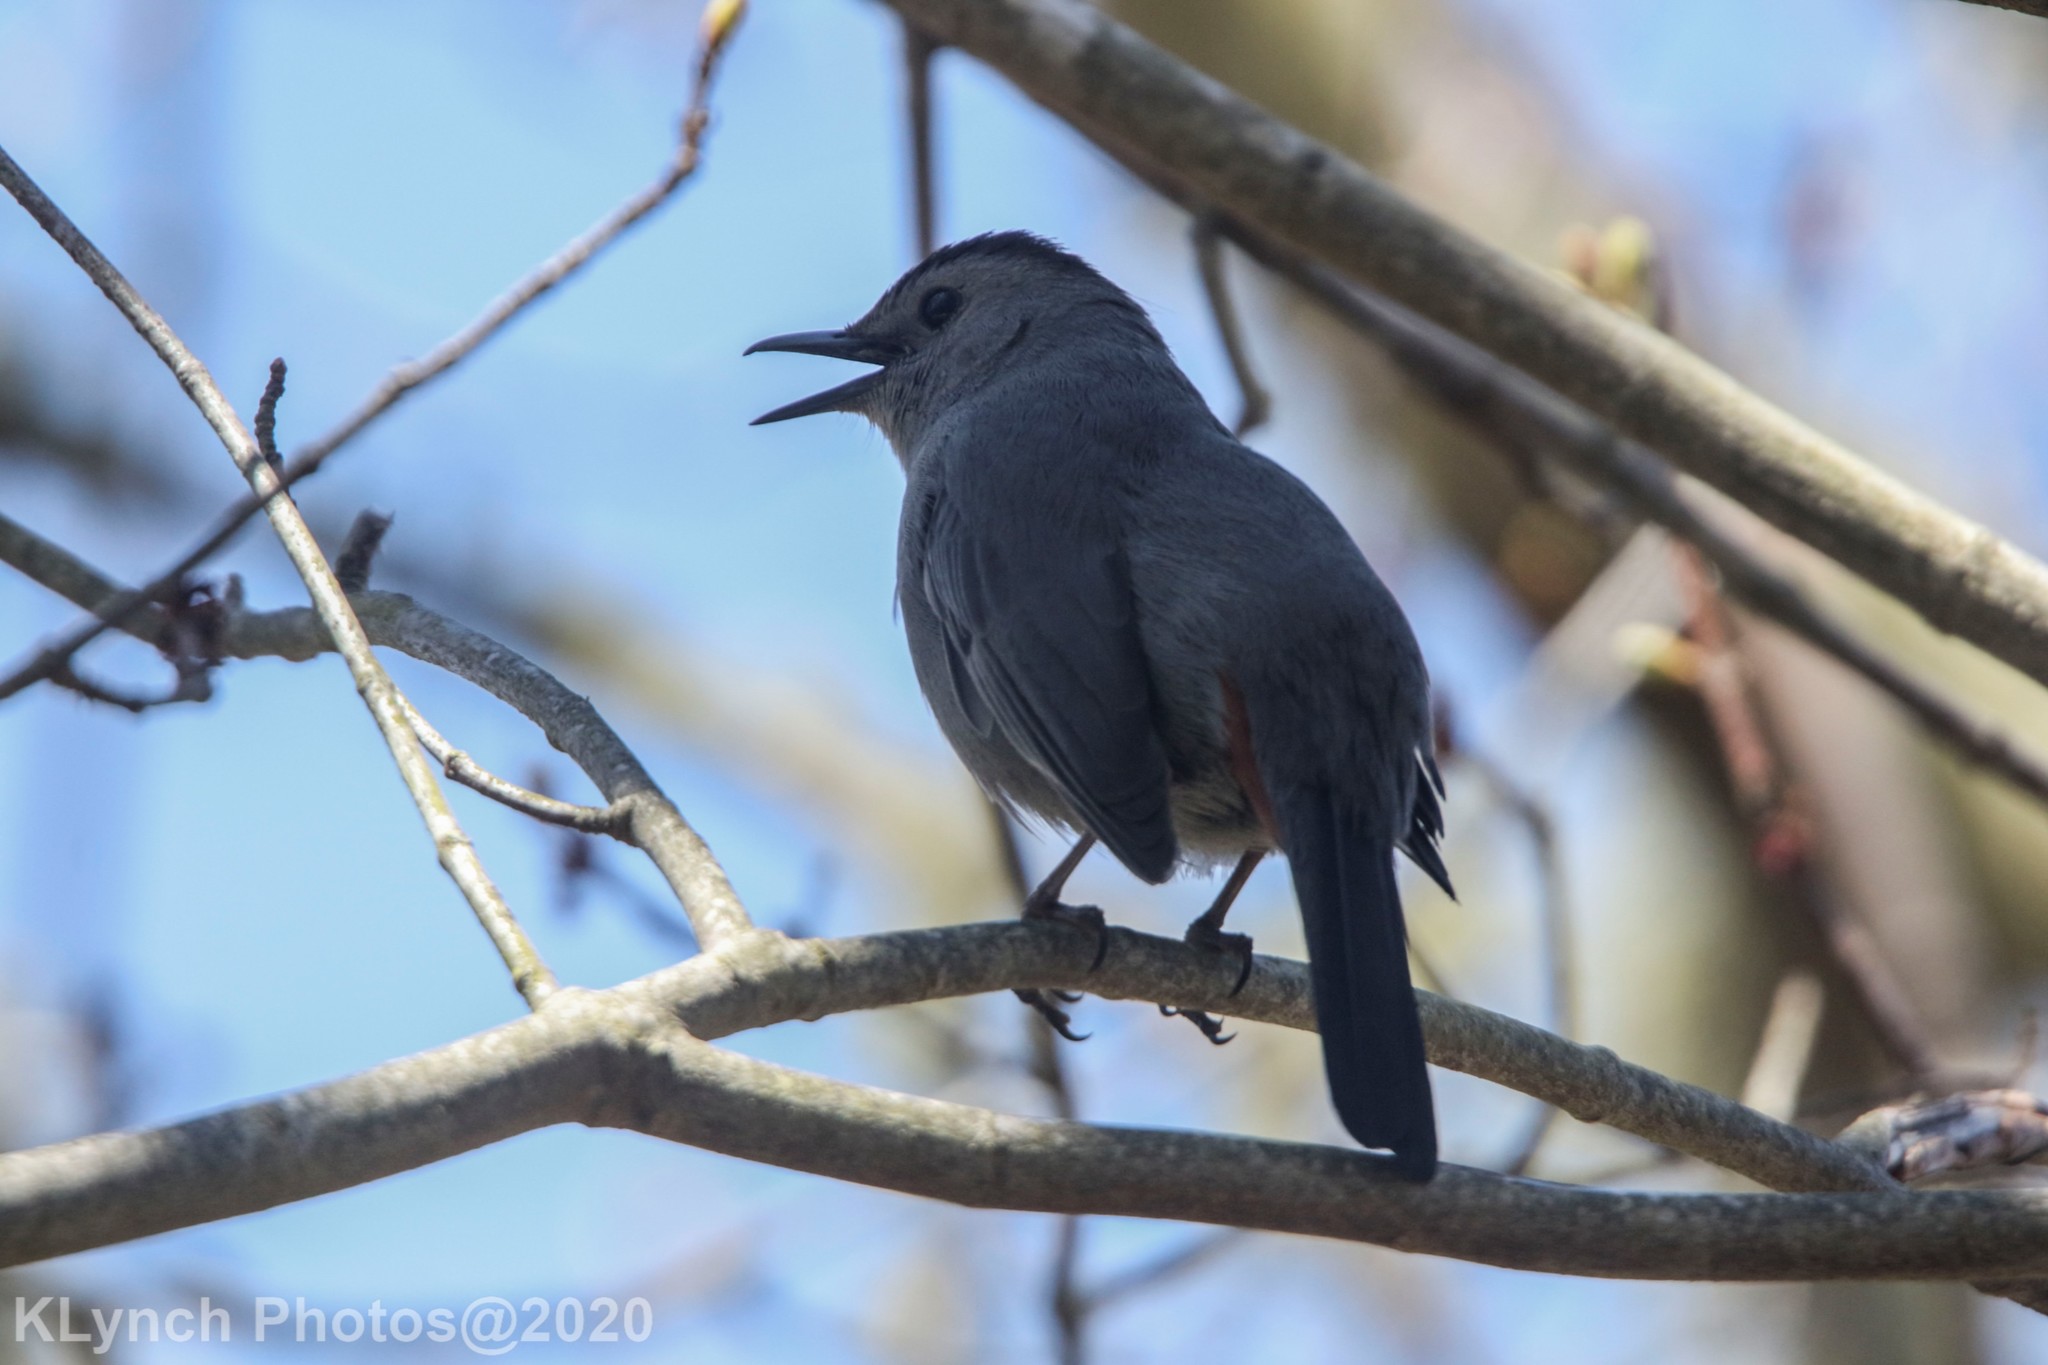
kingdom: Animalia
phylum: Chordata
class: Aves
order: Passeriformes
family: Mimidae
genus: Dumetella
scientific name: Dumetella carolinensis
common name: Gray catbird
